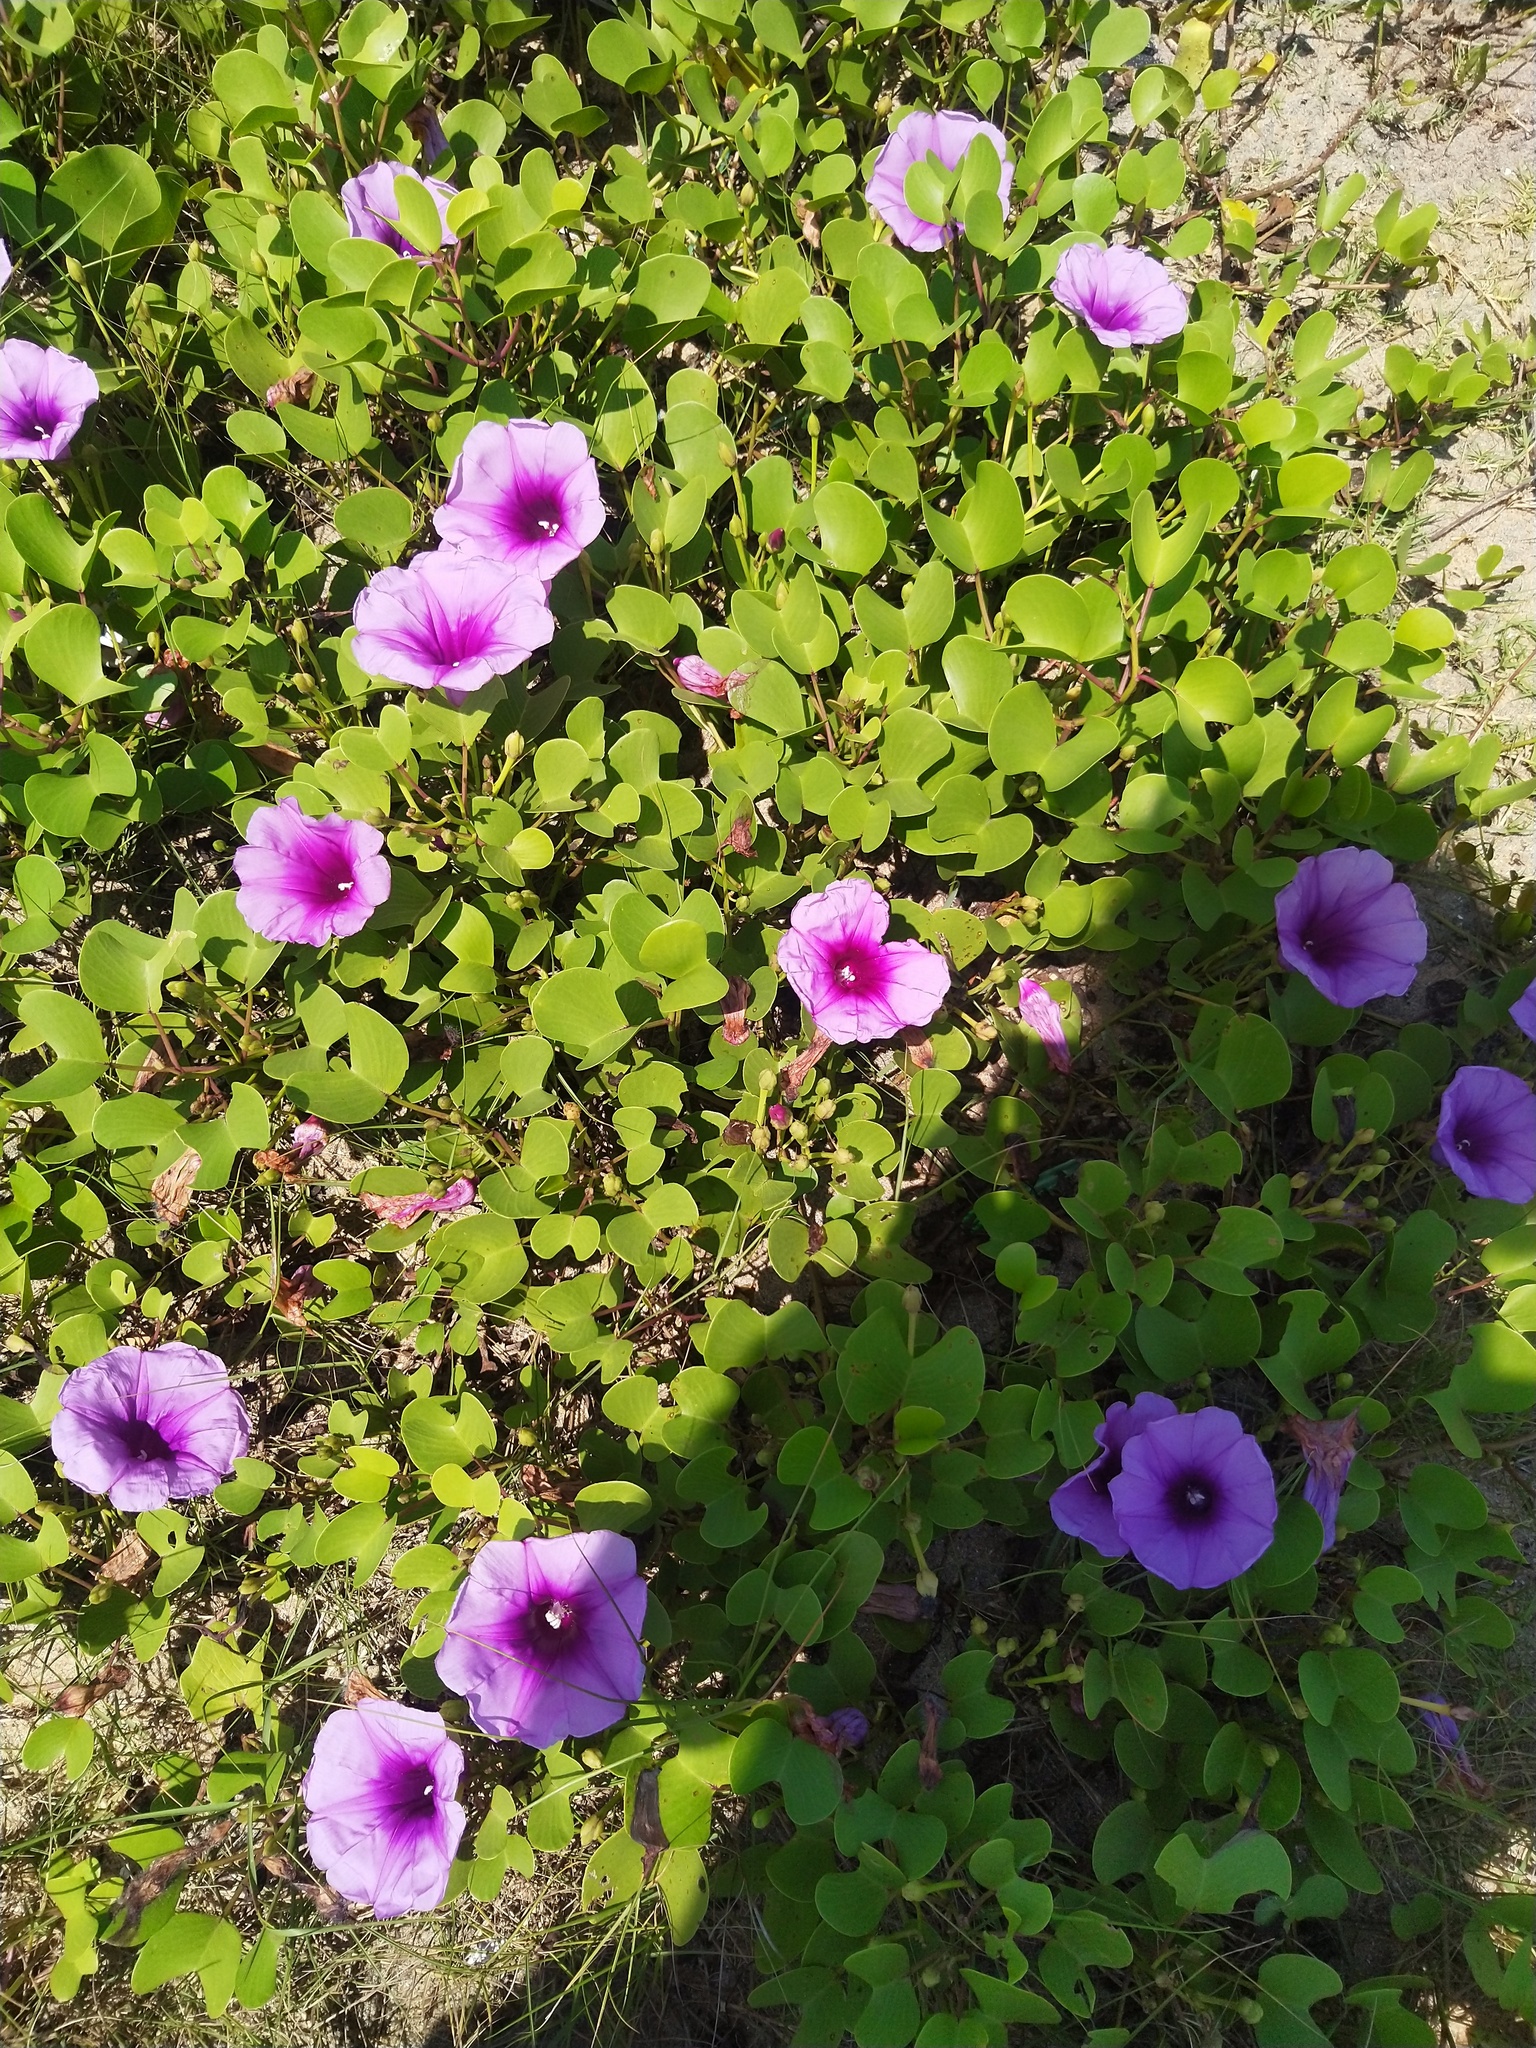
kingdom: Plantae
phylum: Tracheophyta
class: Magnoliopsida
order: Solanales
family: Convolvulaceae
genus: Ipomoea
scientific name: Ipomoea pes-caprae
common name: Beach morning glory
